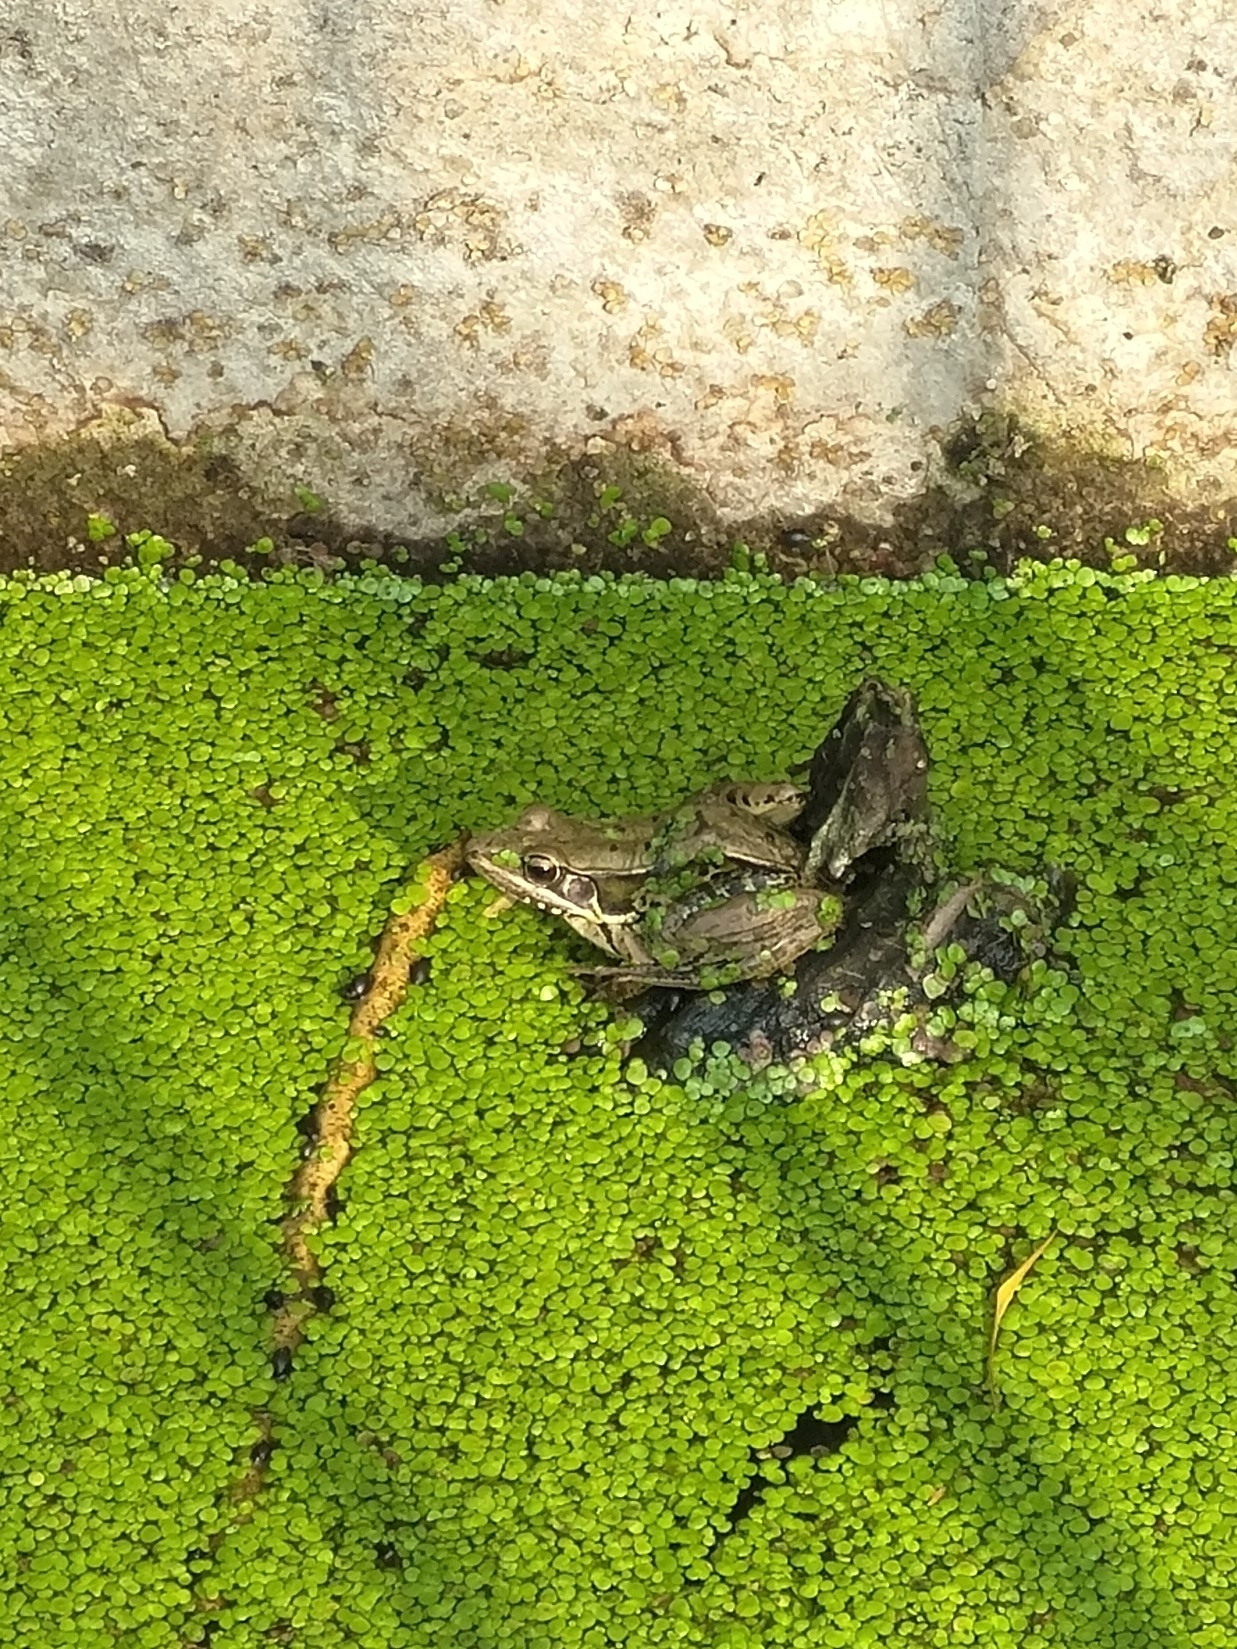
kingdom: Animalia
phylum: Chordata
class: Amphibia
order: Anura
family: Ranidae
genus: Sylvirana
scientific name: Sylvirana guentheri
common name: Guenther's amoy frog
